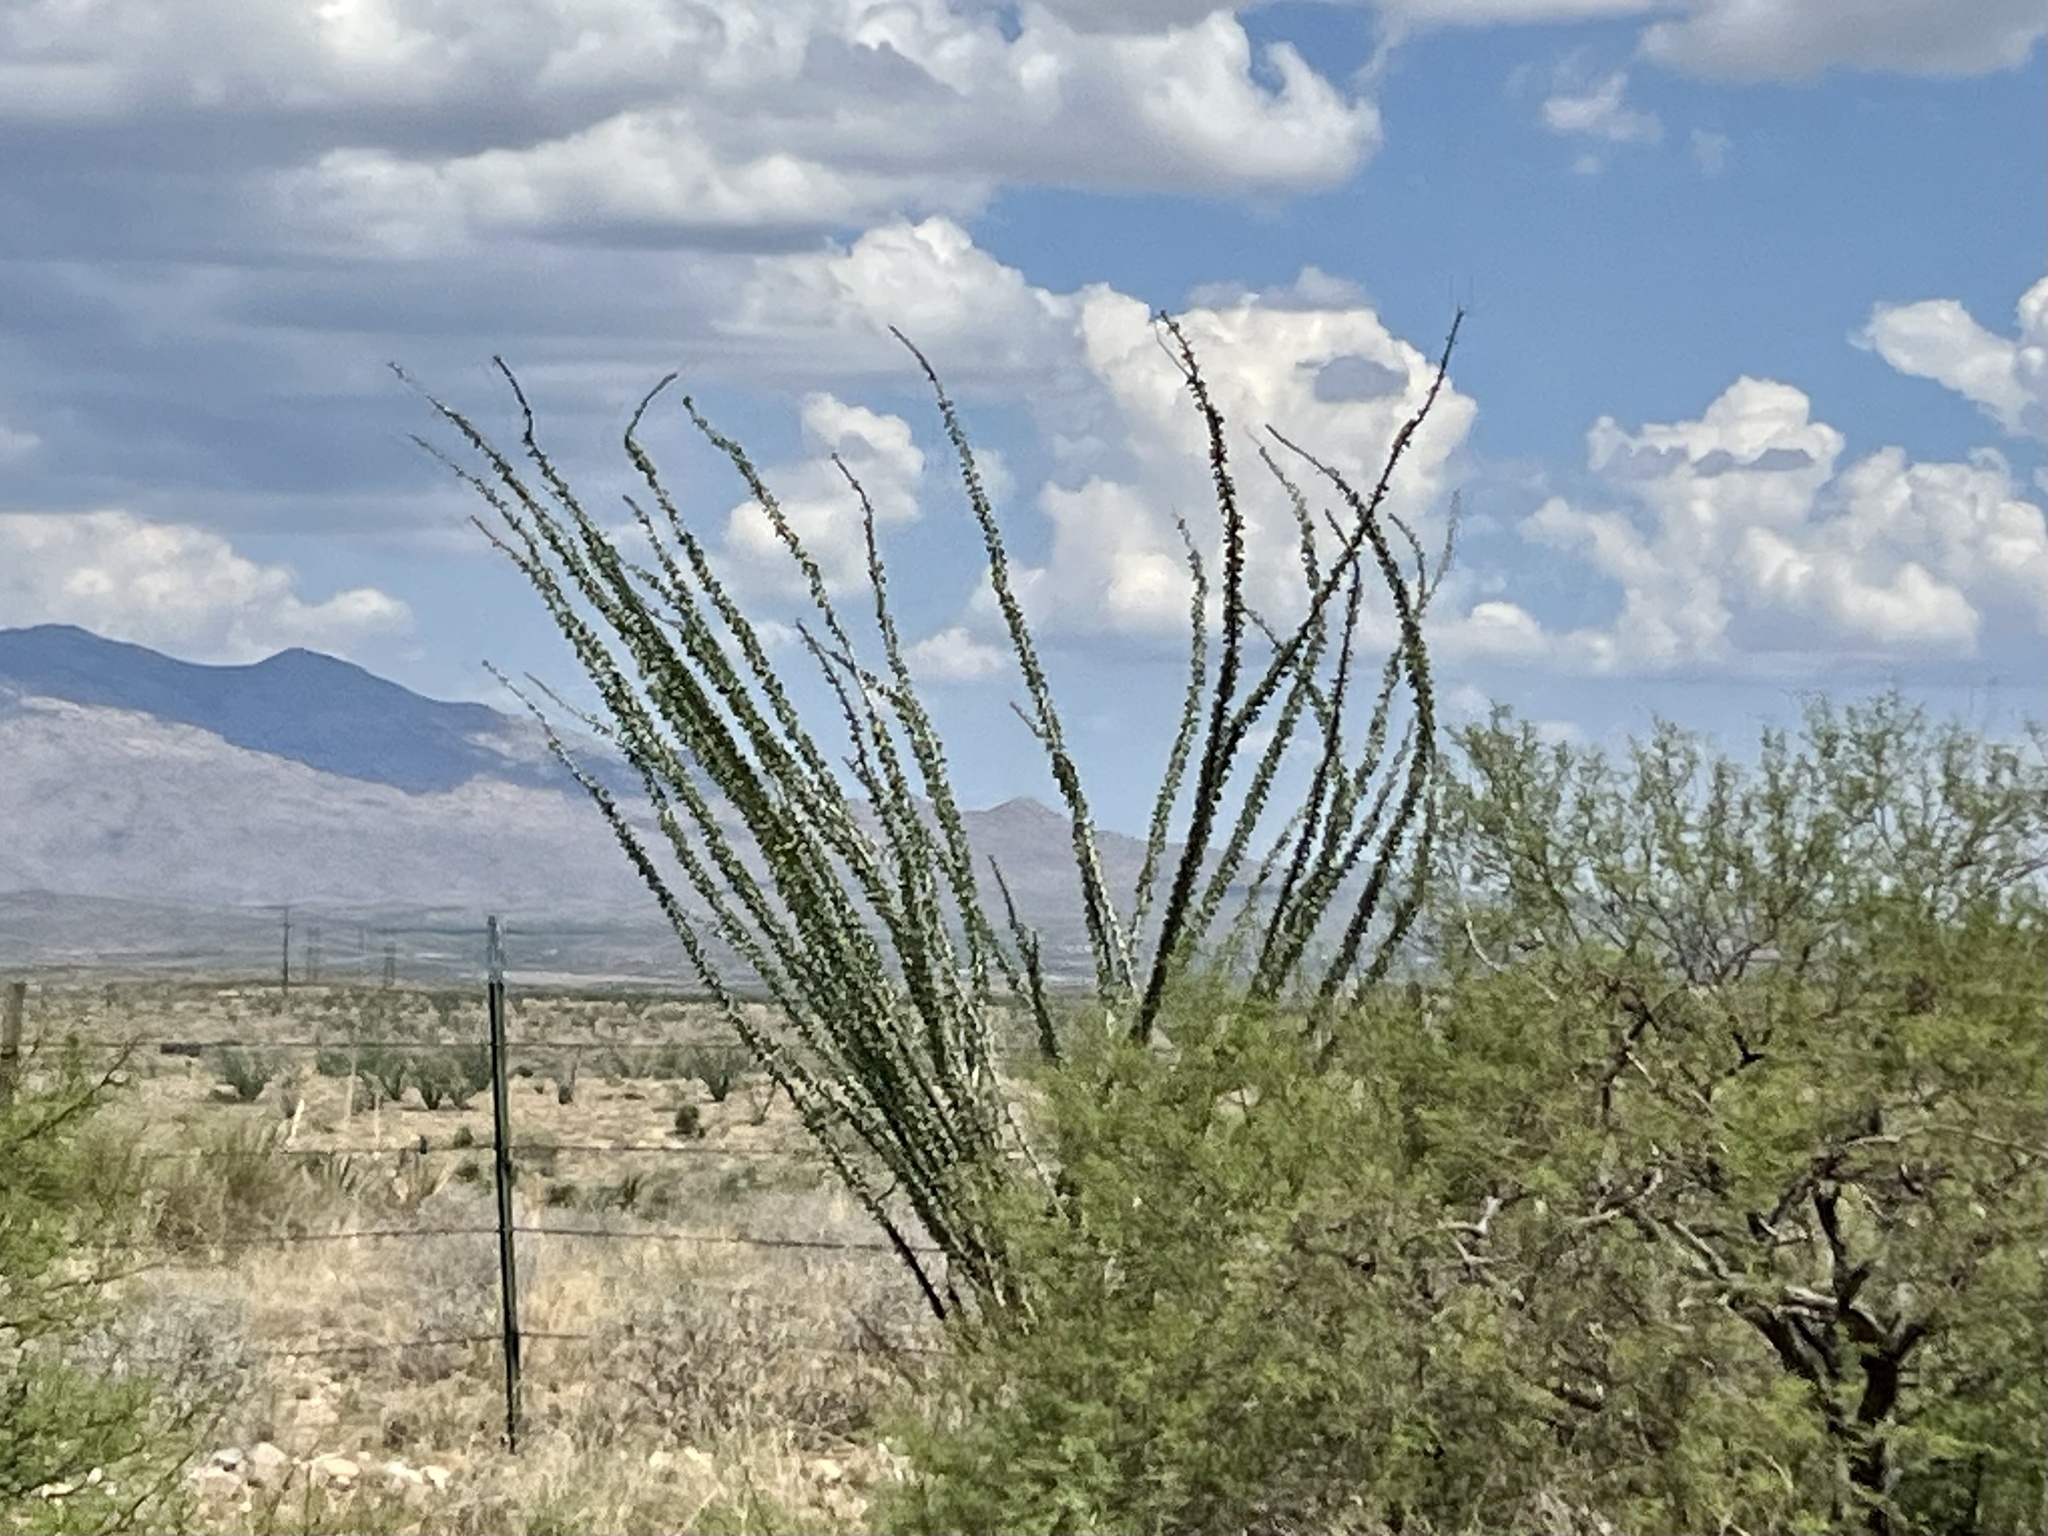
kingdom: Plantae
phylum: Tracheophyta
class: Magnoliopsida
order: Ericales
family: Fouquieriaceae
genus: Fouquieria
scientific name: Fouquieria splendens
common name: Vine-cactus
